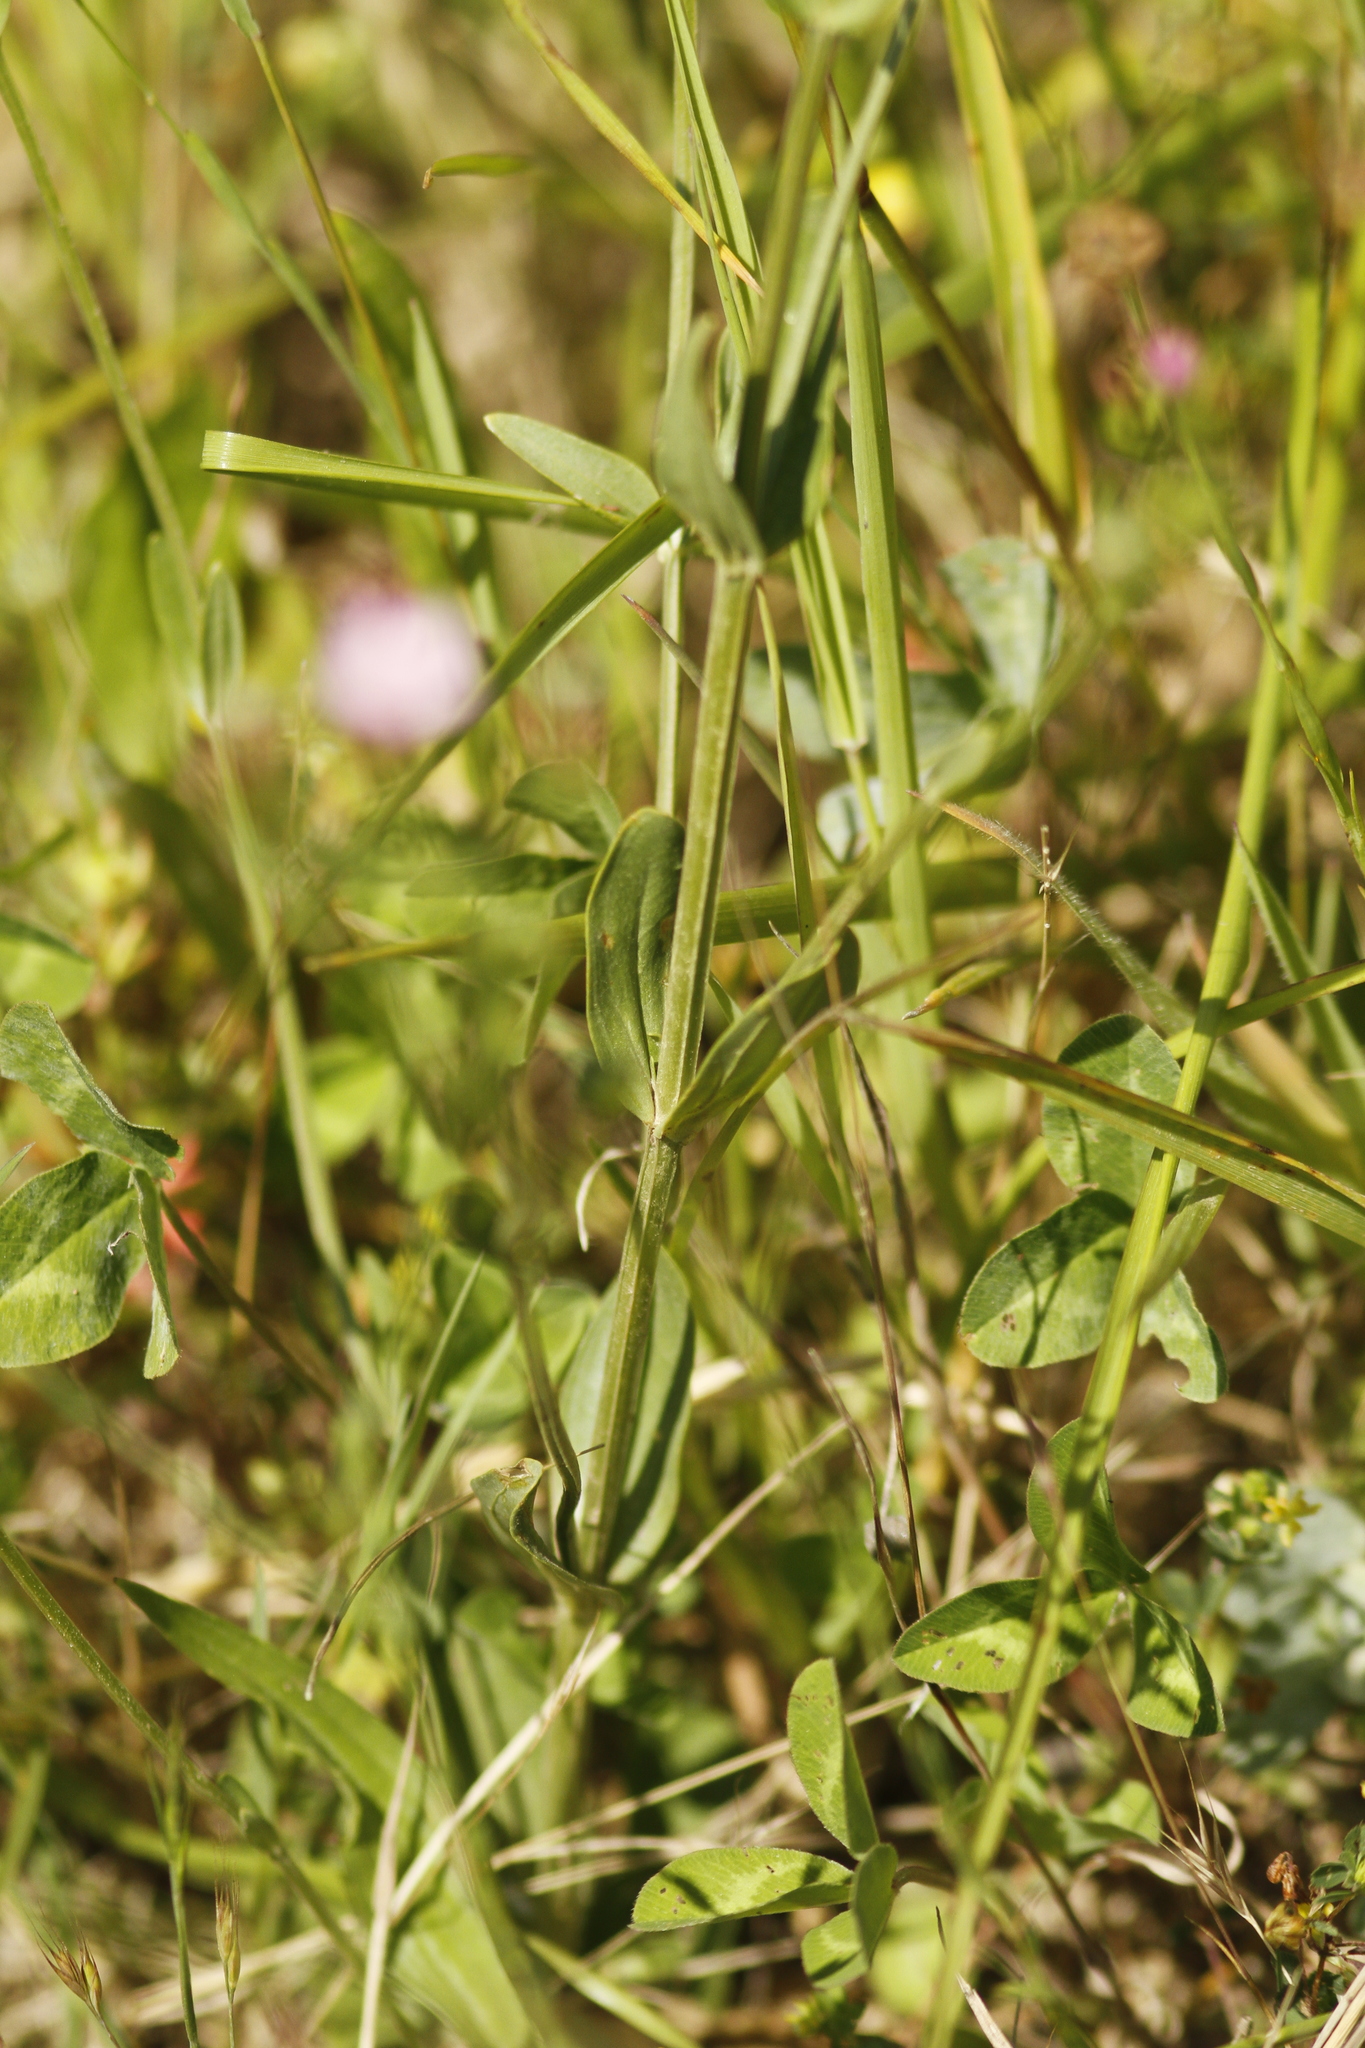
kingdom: Plantae
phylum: Tracheophyta
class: Magnoliopsida
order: Gentianales
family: Gentianaceae
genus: Centaurium
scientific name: Centaurium erythraea
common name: Common centaury
